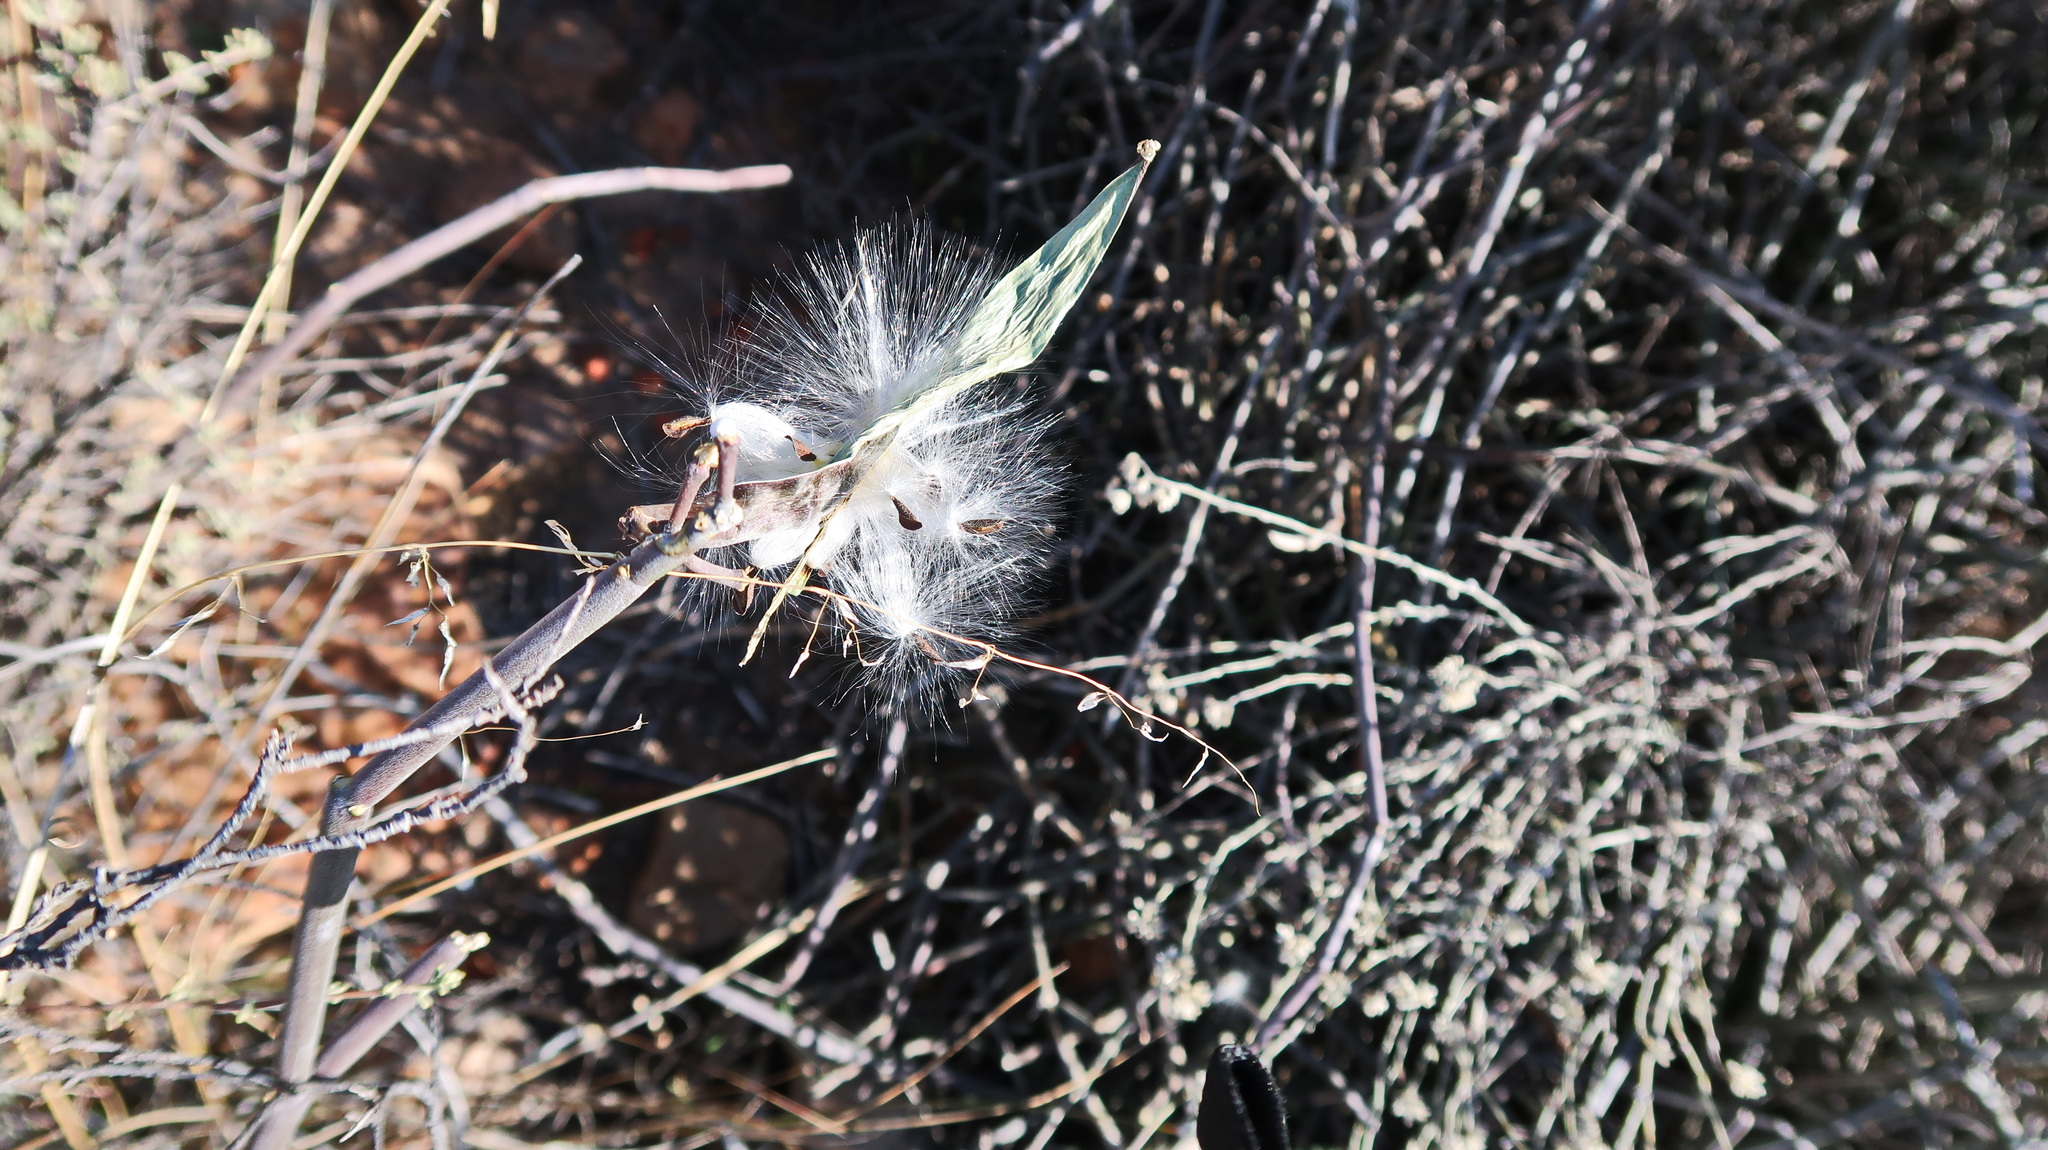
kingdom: Plantae
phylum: Tracheophyta
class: Magnoliopsida
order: Gentianales
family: Apocynaceae
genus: Cynanchum
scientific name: Cynanchum viminale
